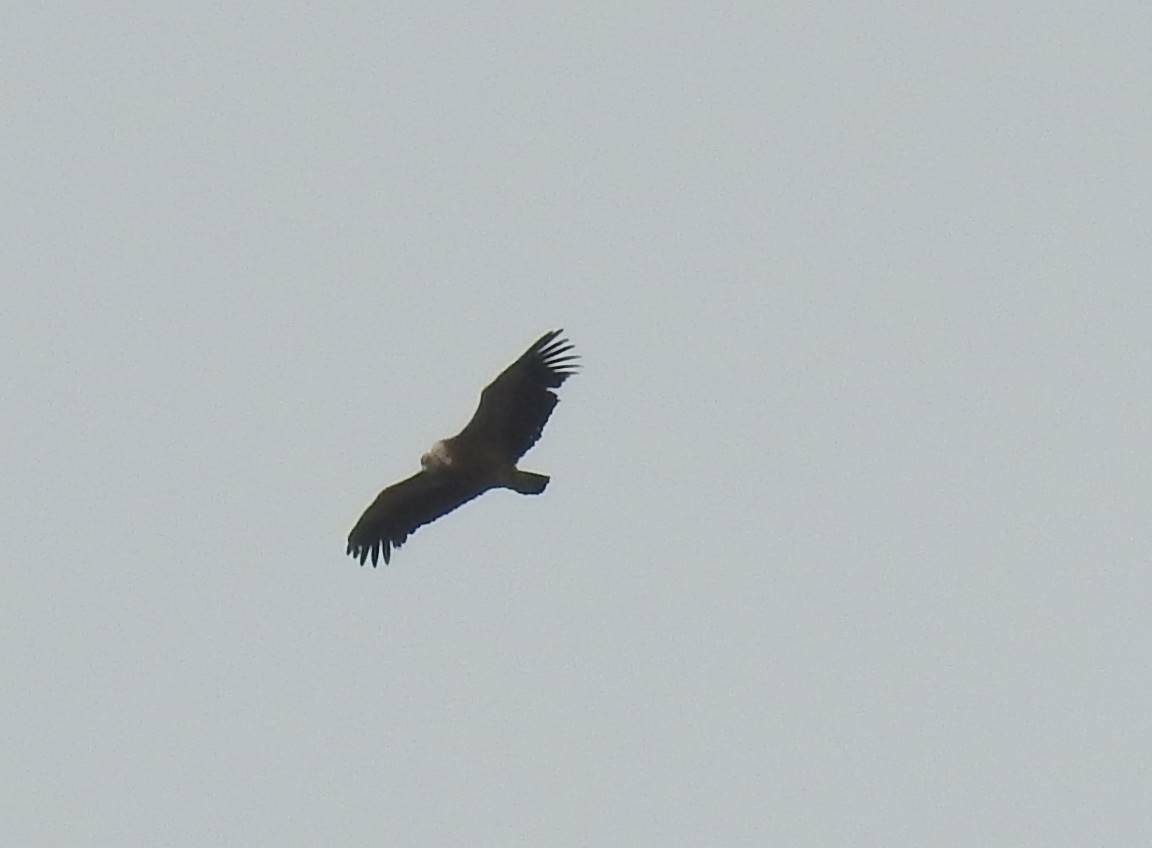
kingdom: Animalia
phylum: Chordata
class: Aves
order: Accipitriformes
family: Accipitridae
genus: Gyps
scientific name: Gyps fulvus
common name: Griffon vulture
